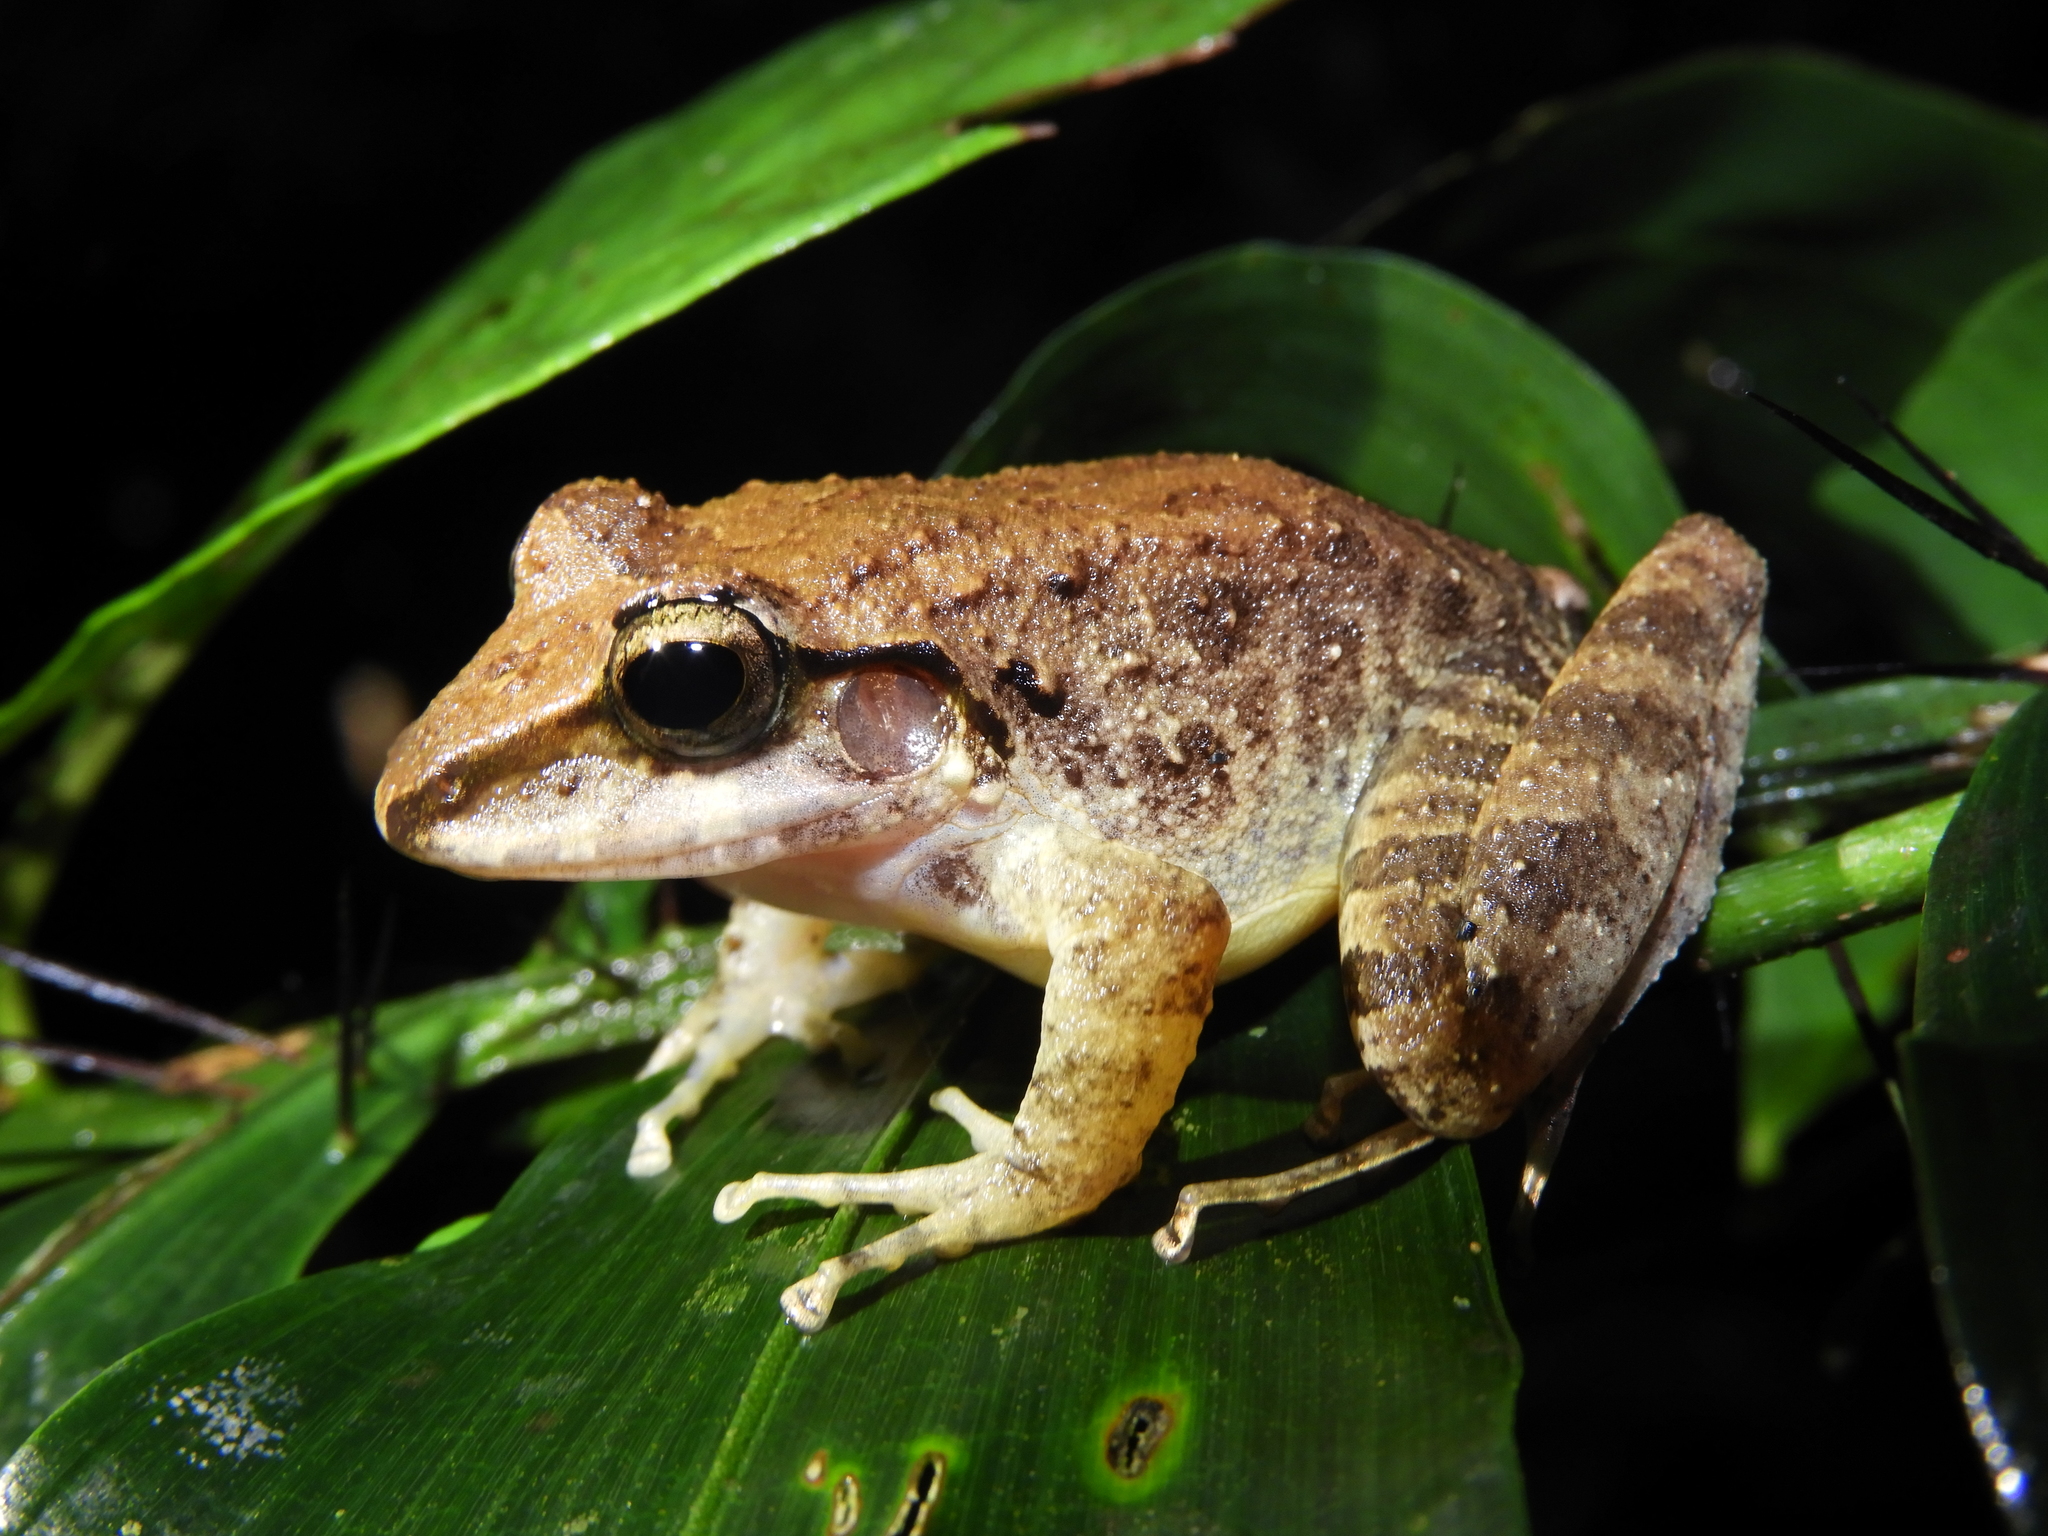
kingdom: Animalia
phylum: Chordata
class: Amphibia
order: Anura
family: Craugastoridae
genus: Craugastor
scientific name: Craugastor raniformis
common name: Robber frog
